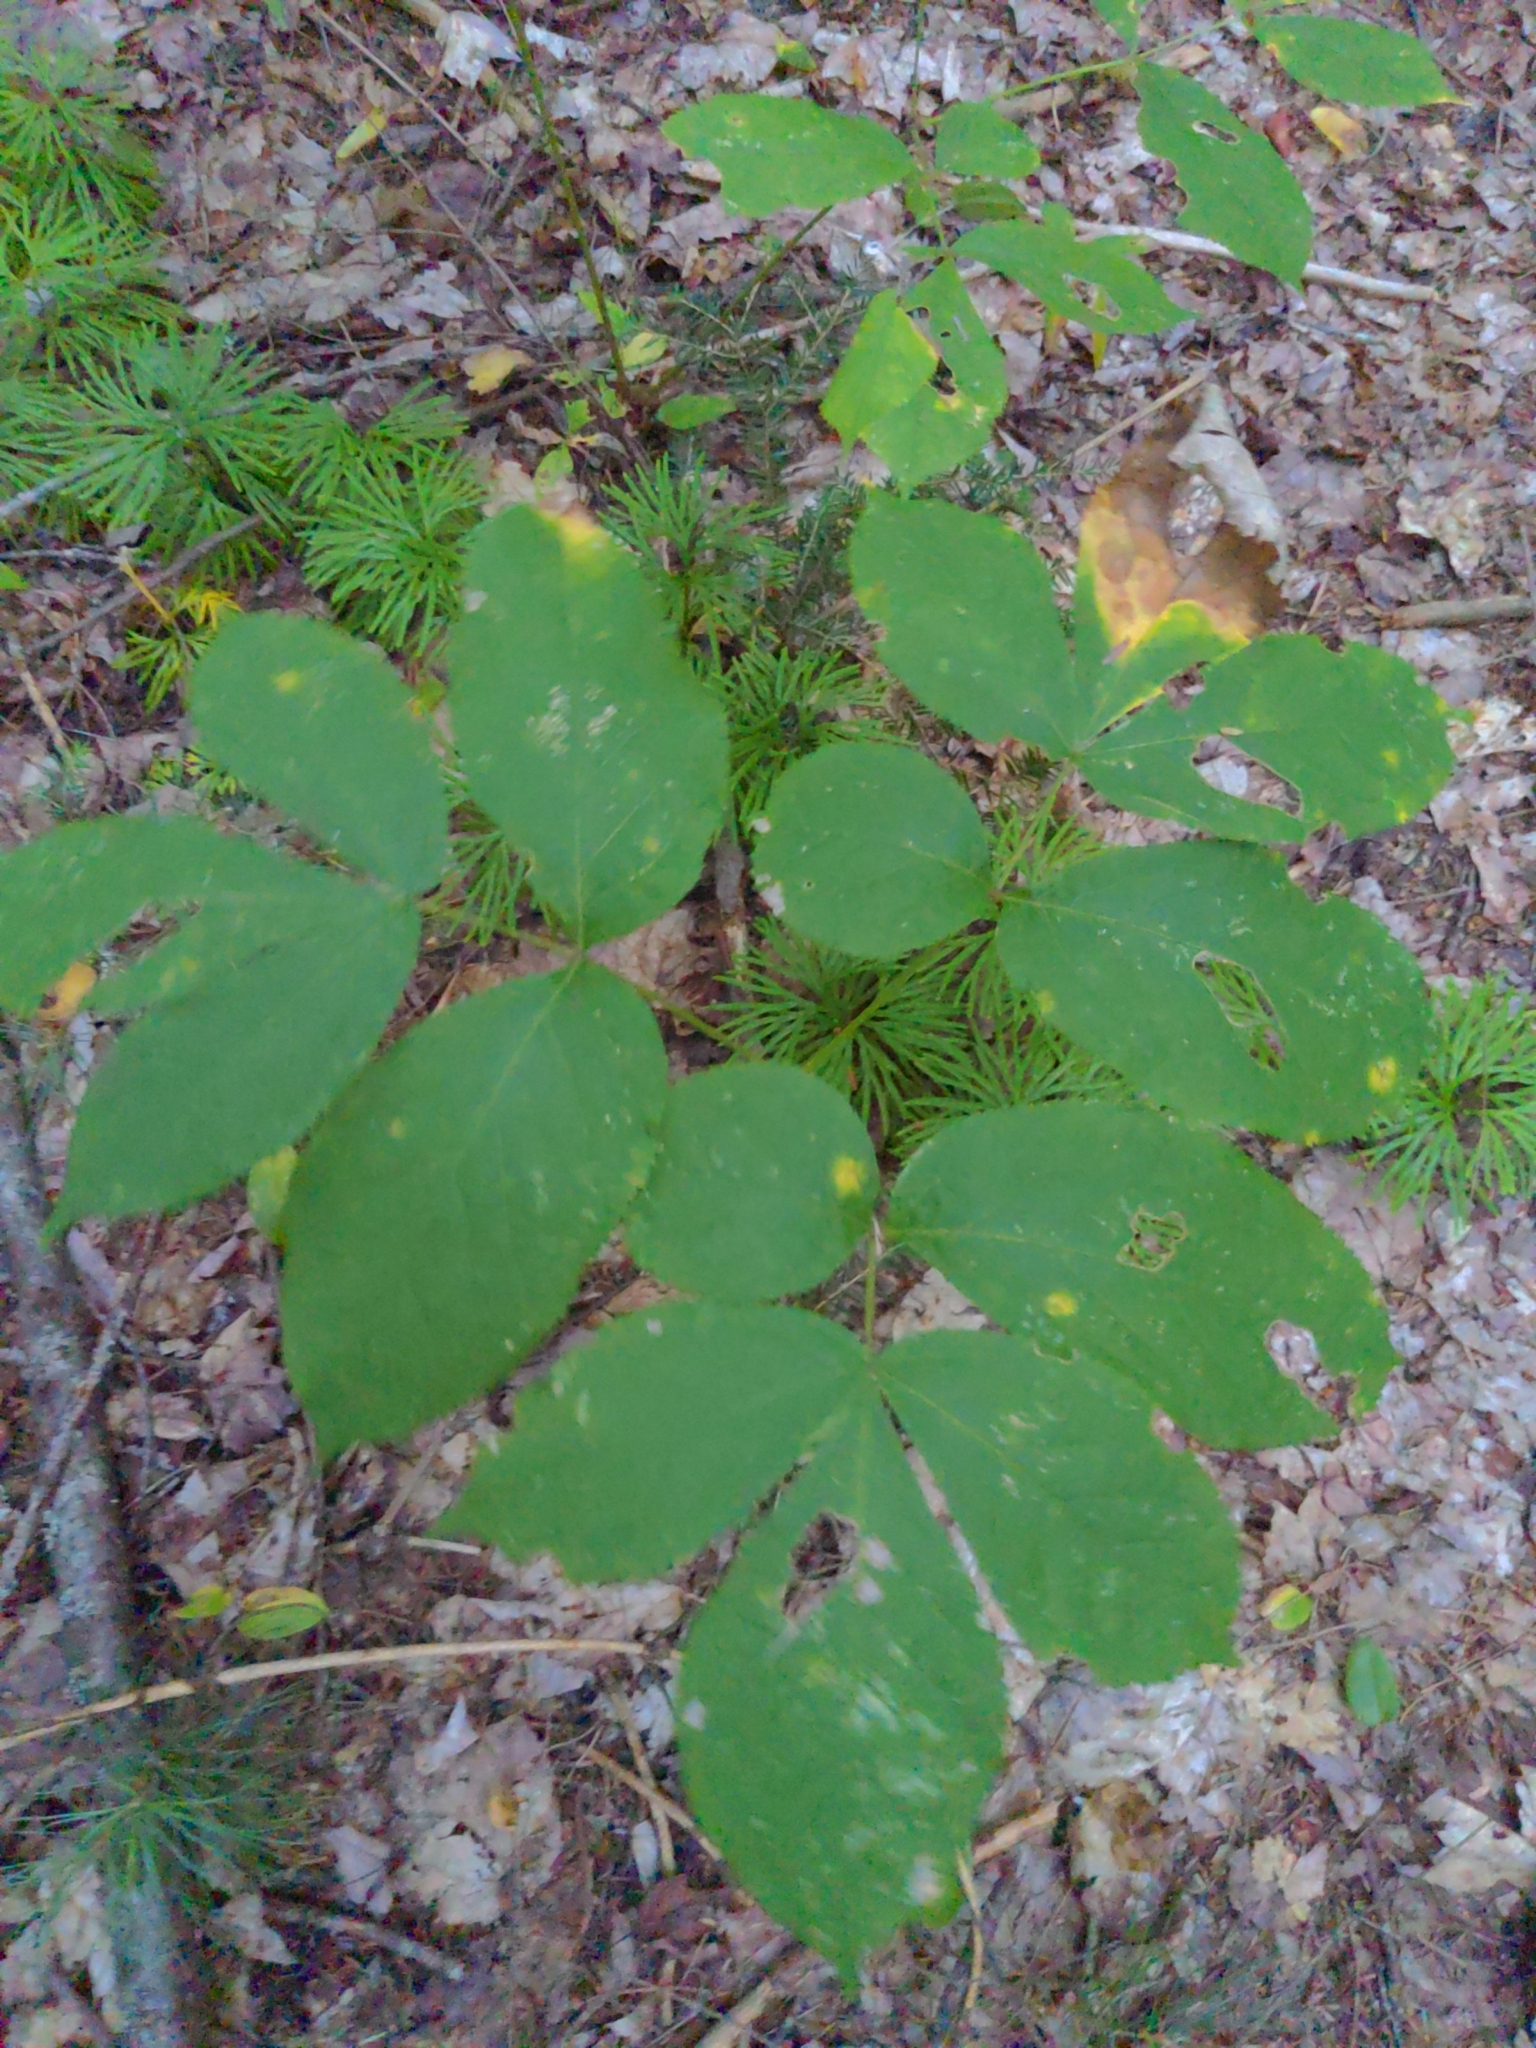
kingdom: Plantae
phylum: Tracheophyta
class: Magnoliopsida
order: Apiales
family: Araliaceae
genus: Aralia
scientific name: Aralia nudicaulis
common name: Wild sarsaparilla
